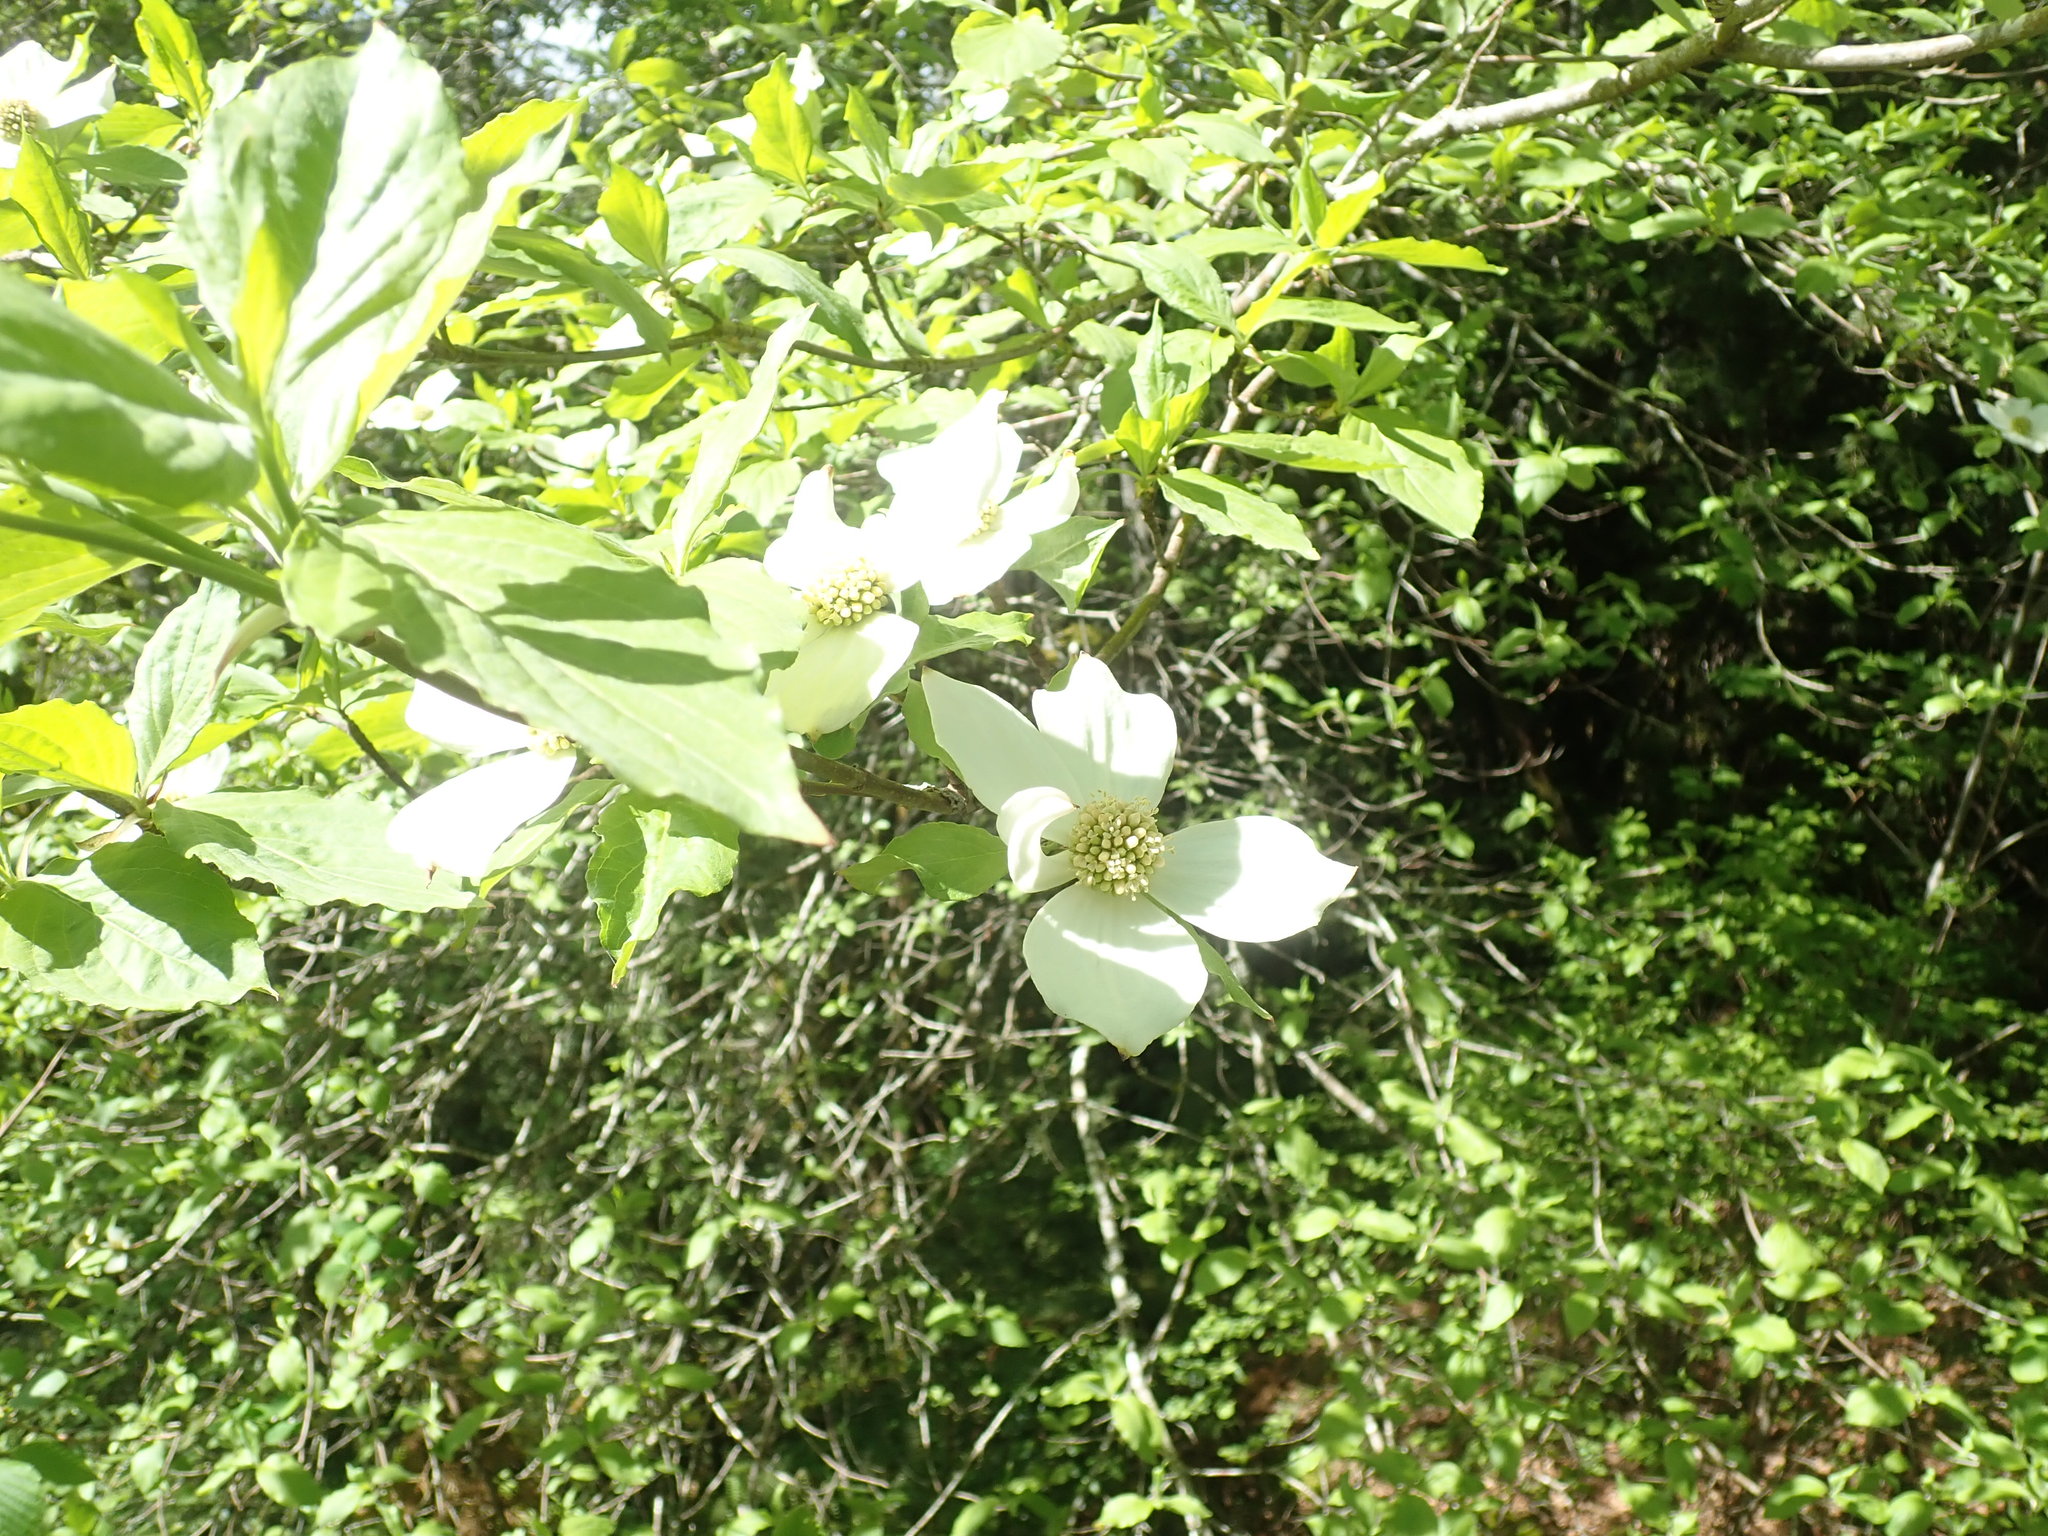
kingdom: Plantae
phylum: Tracheophyta
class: Magnoliopsida
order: Cornales
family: Cornaceae
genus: Cornus
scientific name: Cornus nuttallii
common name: Pacific dogwood
